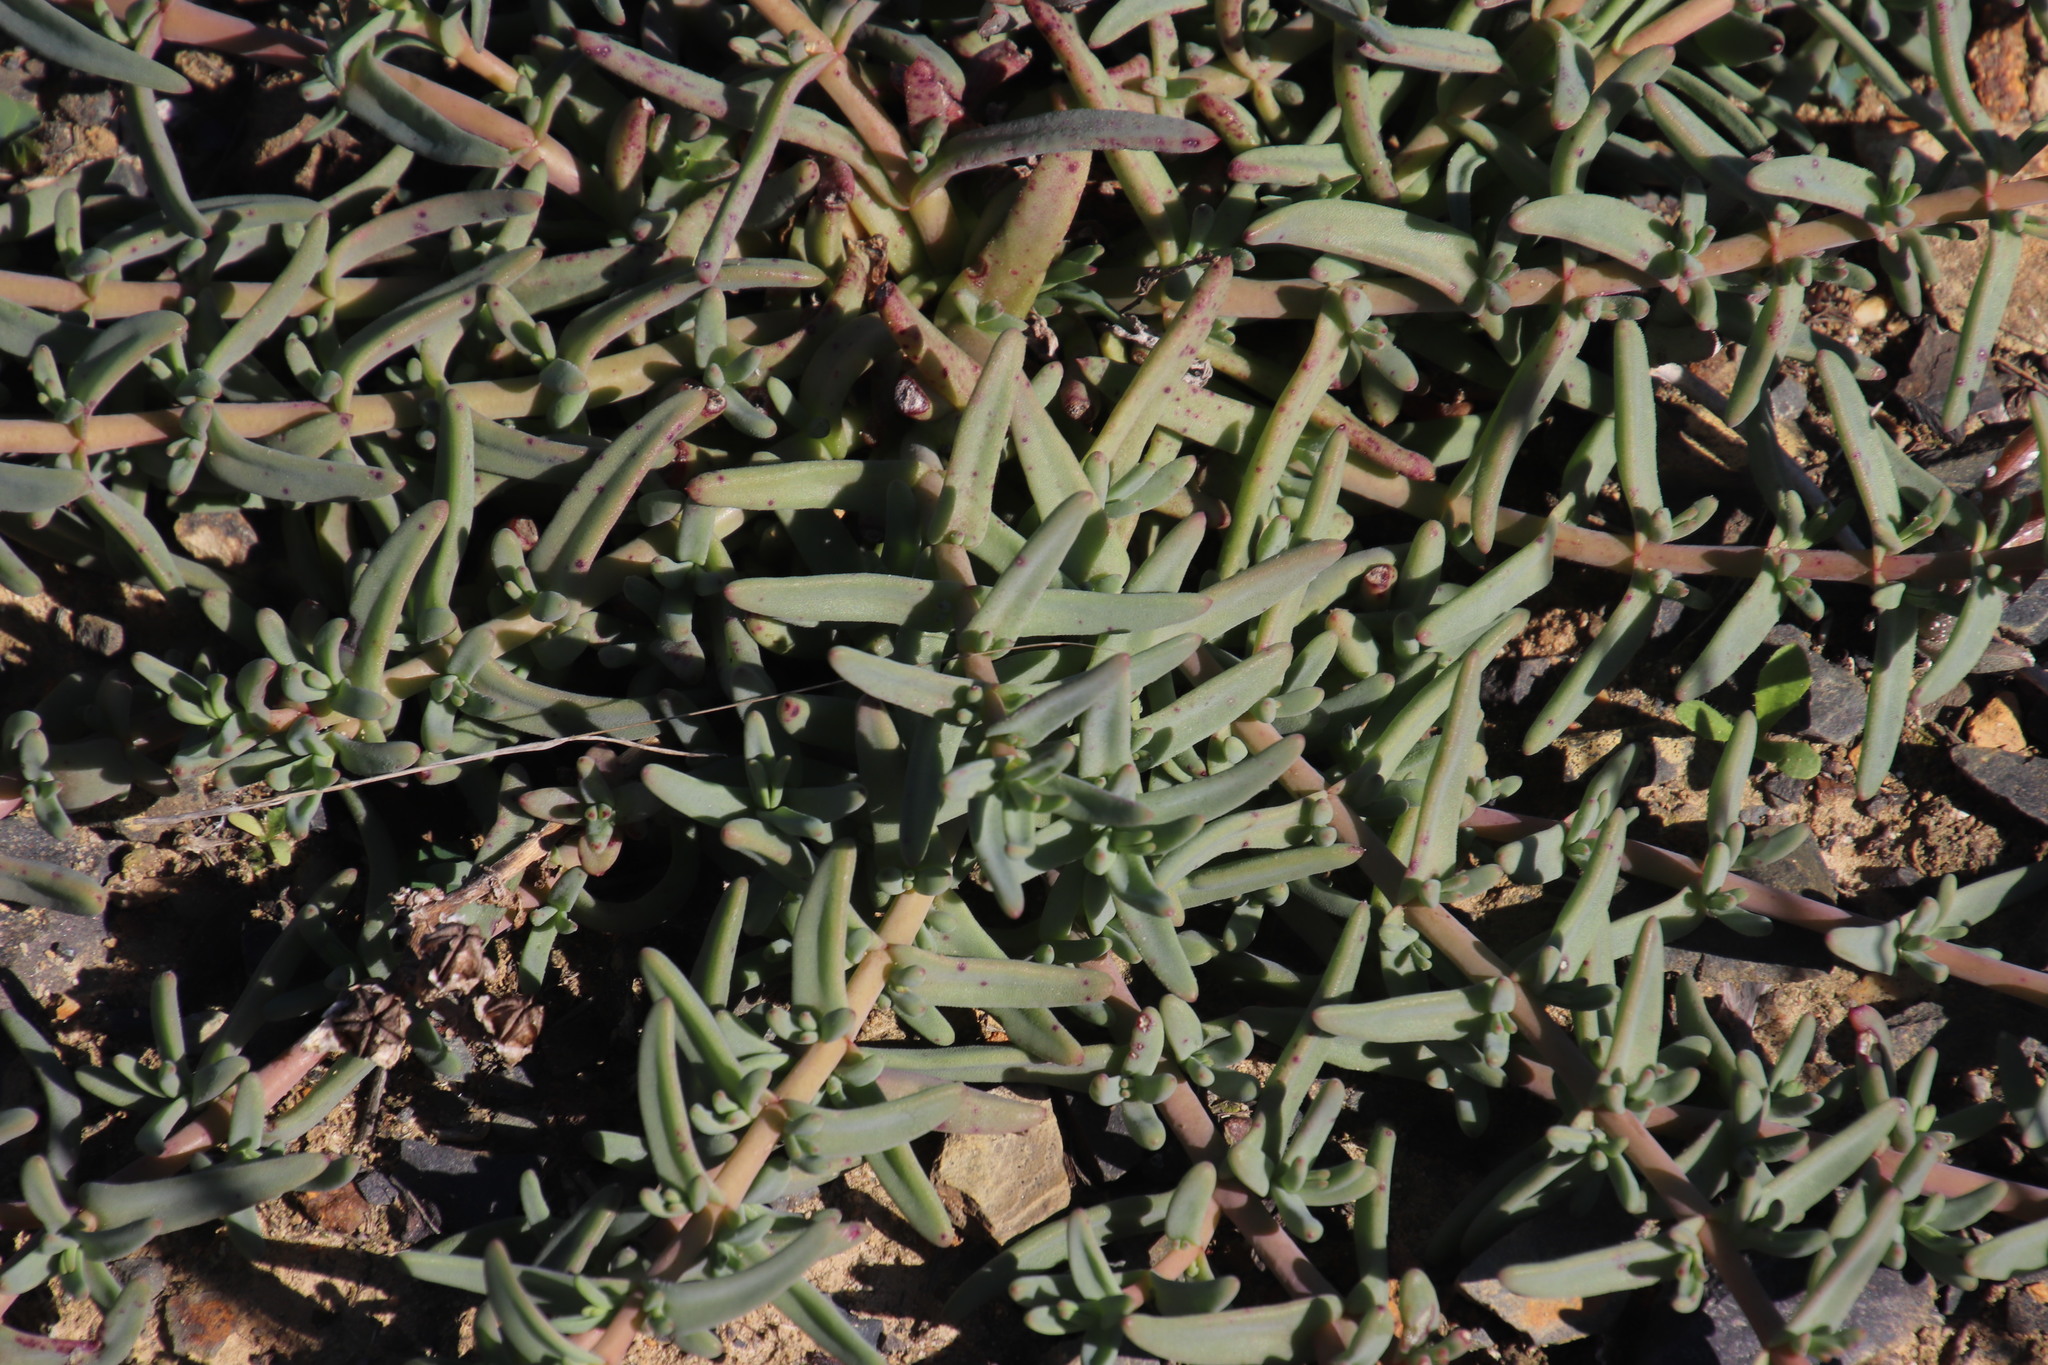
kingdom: Plantae
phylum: Tracheophyta
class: Magnoliopsida
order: Caryophyllales
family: Aizoaceae
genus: Mesembryanthemum
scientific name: Mesembryanthemum pallens
